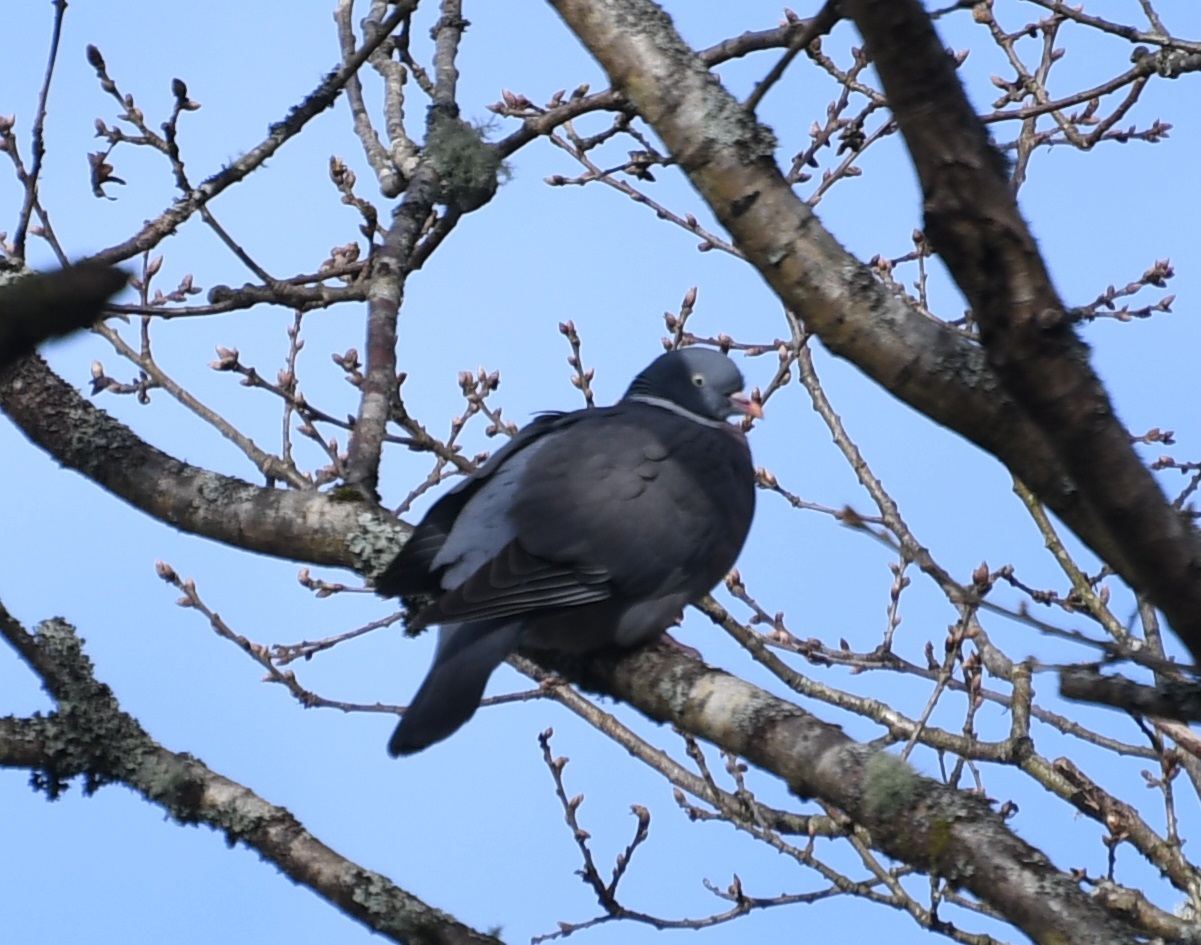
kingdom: Animalia
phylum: Chordata
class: Aves
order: Columbiformes
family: Columbidae
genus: Columba
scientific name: Columba palumbus
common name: Common wood pigeon
